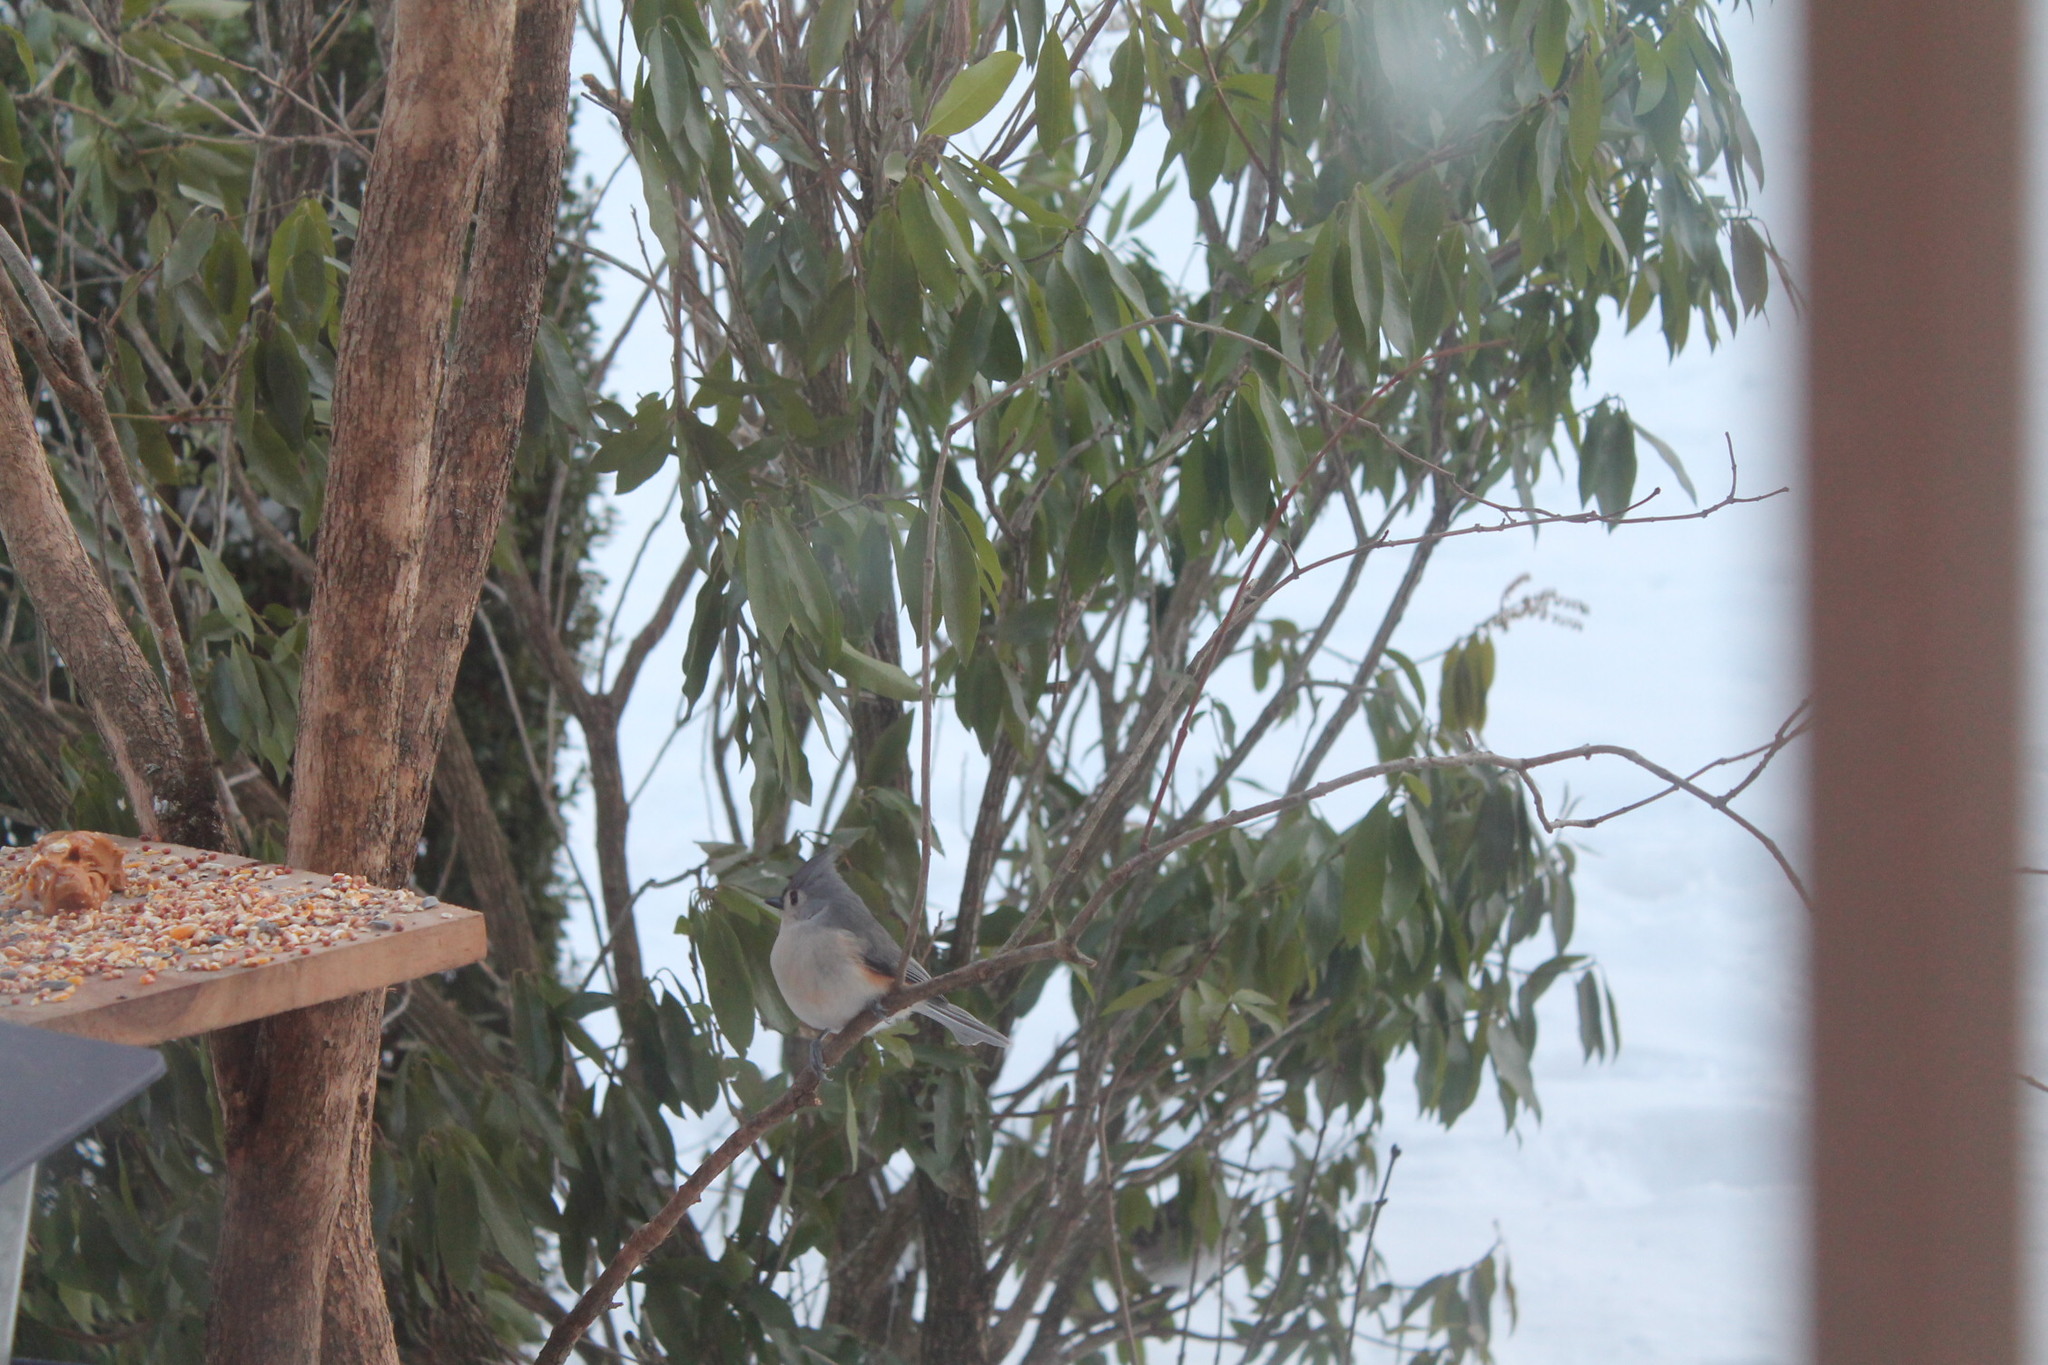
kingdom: Animalia
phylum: Chordata
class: Aves
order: Passeriformes
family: Paridae
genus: Baeolophus
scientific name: Baeolophus bicolor
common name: Tufted titmouse
